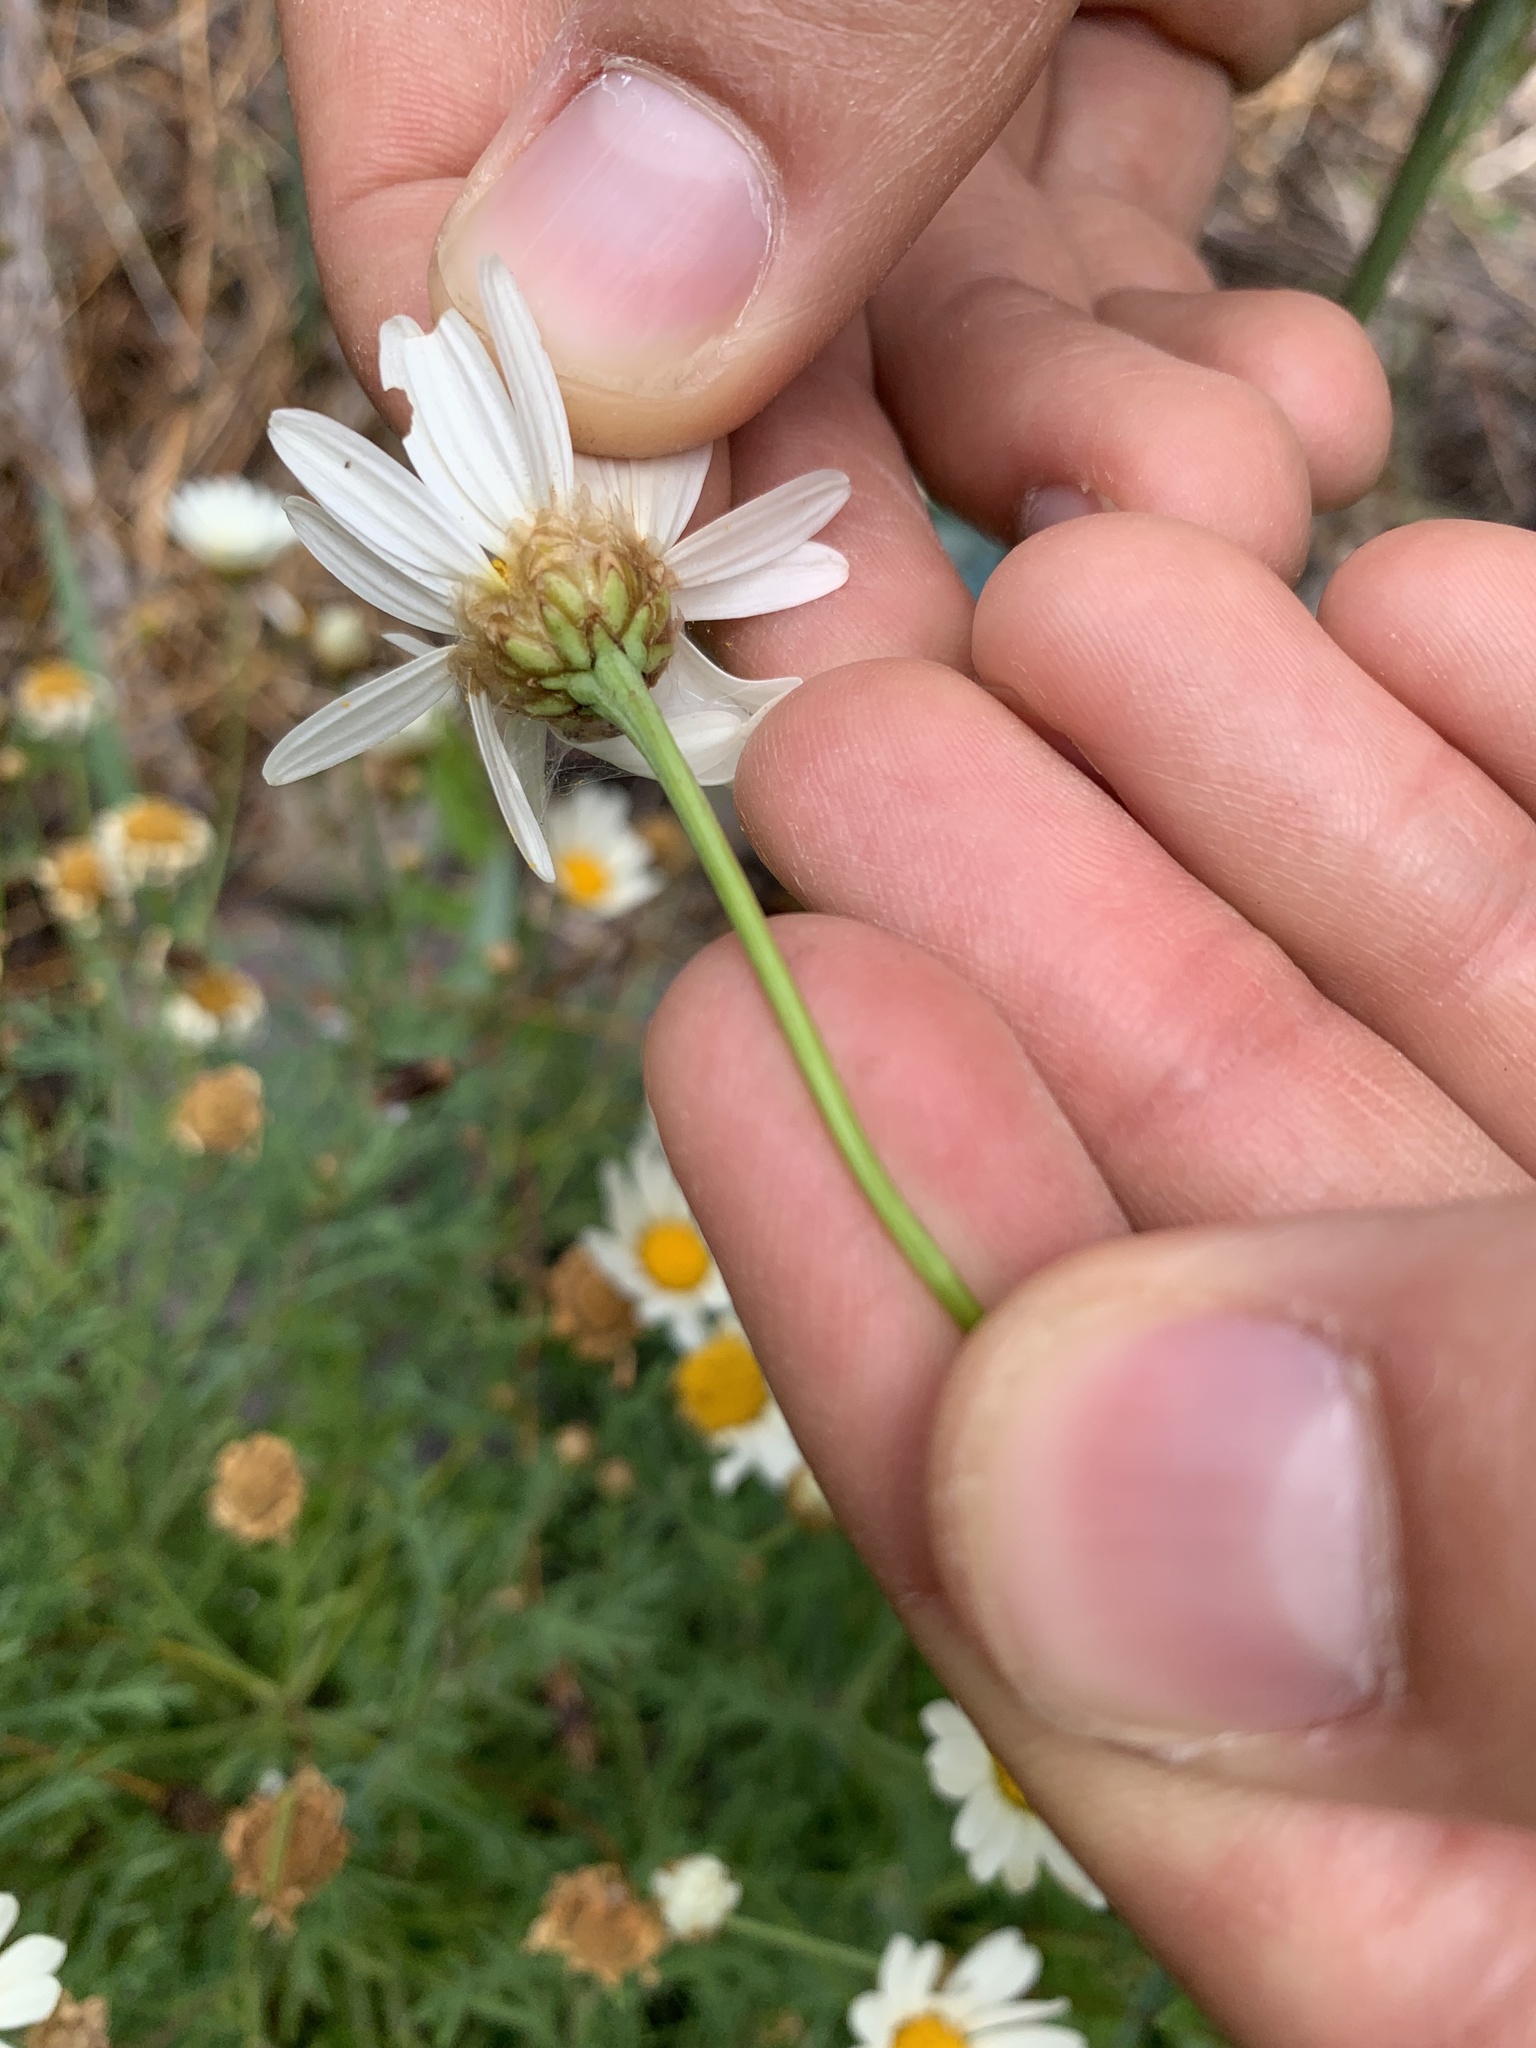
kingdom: Plantae
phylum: Tracheophyta
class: Magnoliopsida
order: Asterales
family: Asteraceae
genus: Argyranthemum
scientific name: Argyranthemum frutescens
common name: Paris daisy
